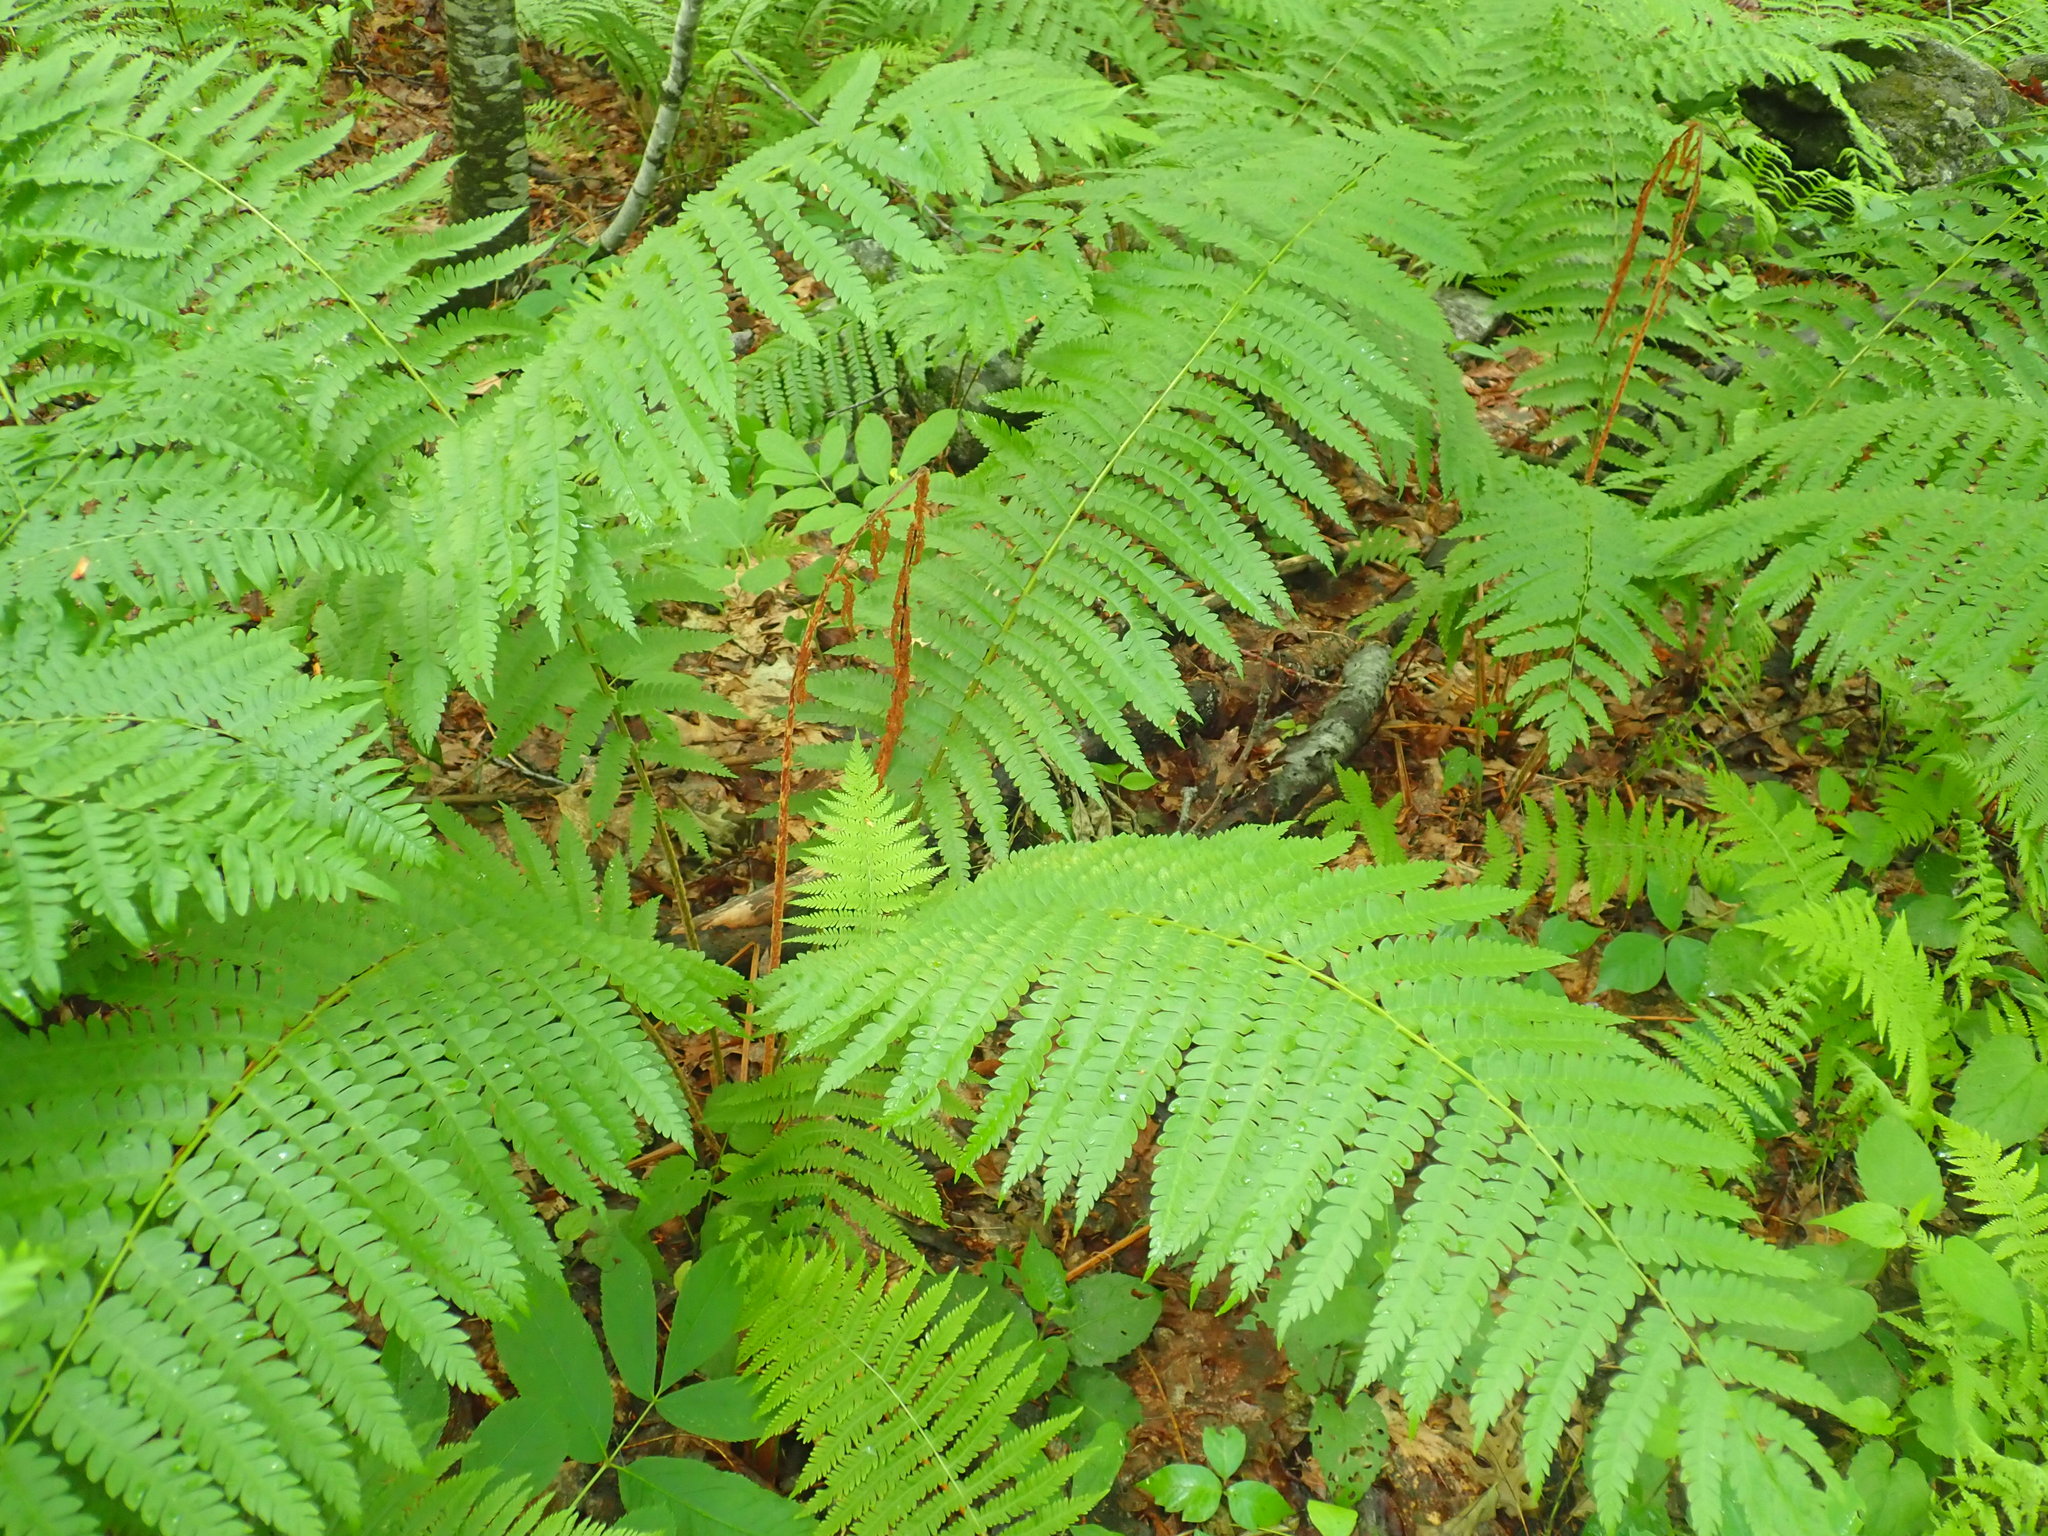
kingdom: Plantae
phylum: Tracheophyta
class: Polypodiopsida
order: Osmundales
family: Osmundaceae
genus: Osmundastrum
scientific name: Osmundastrum cinnamomeum
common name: Cinnamon fern
